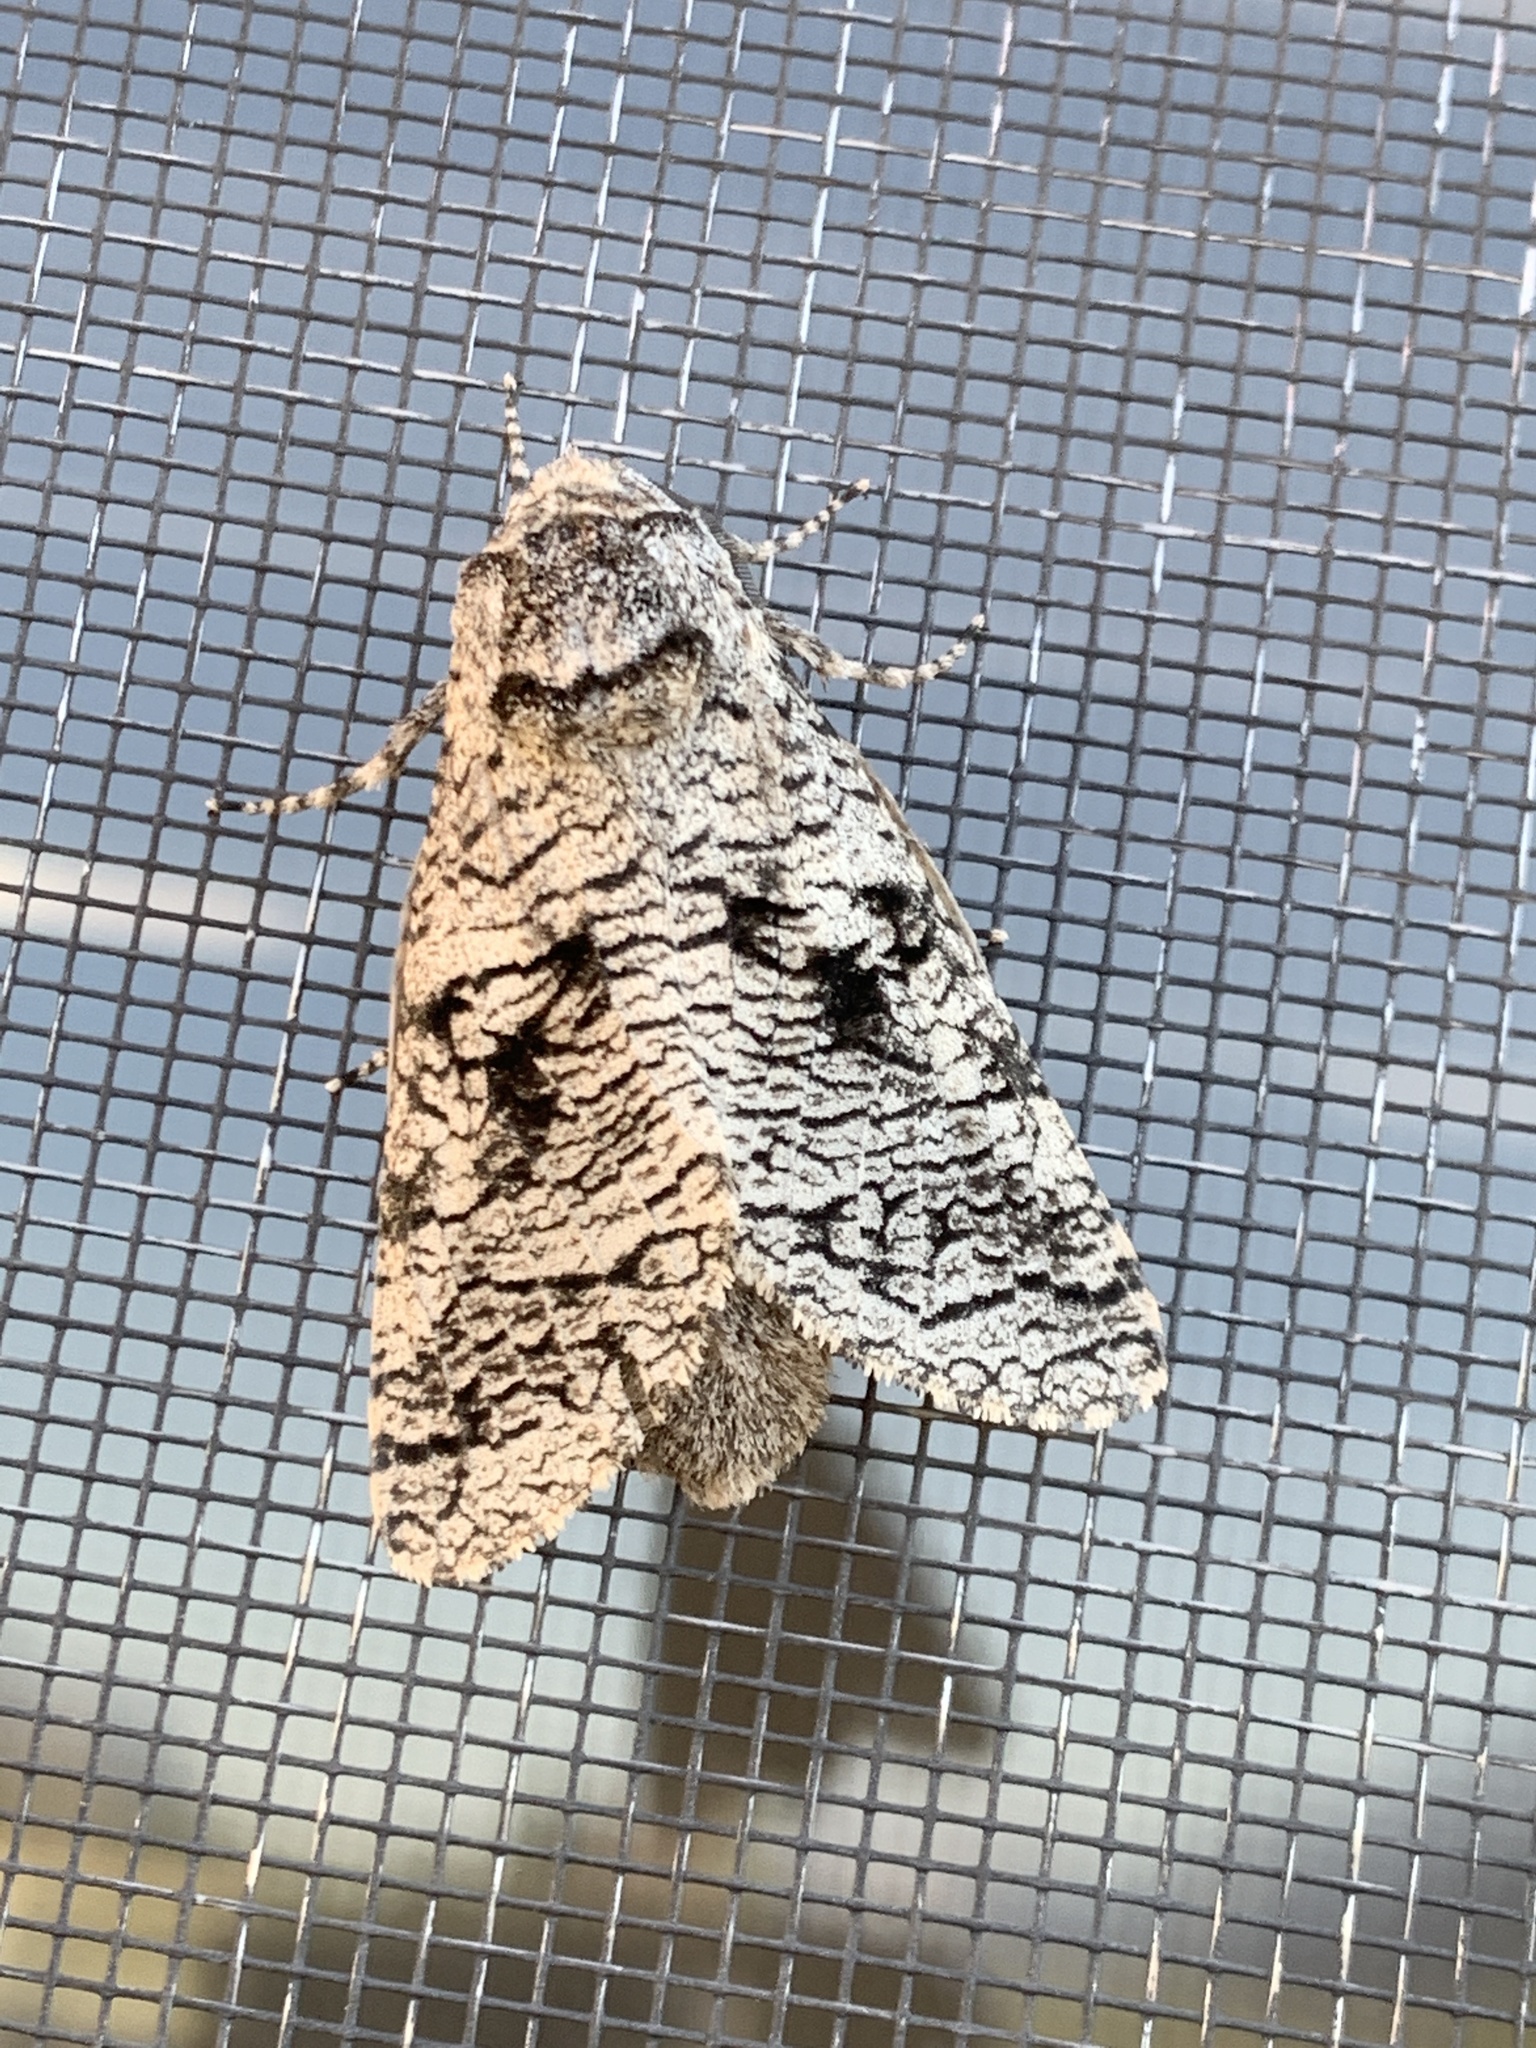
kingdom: Animalia
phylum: Arthropoda
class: Insecta
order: Lepidoptera
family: Cossidae
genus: Acossus
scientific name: Acossus populi
